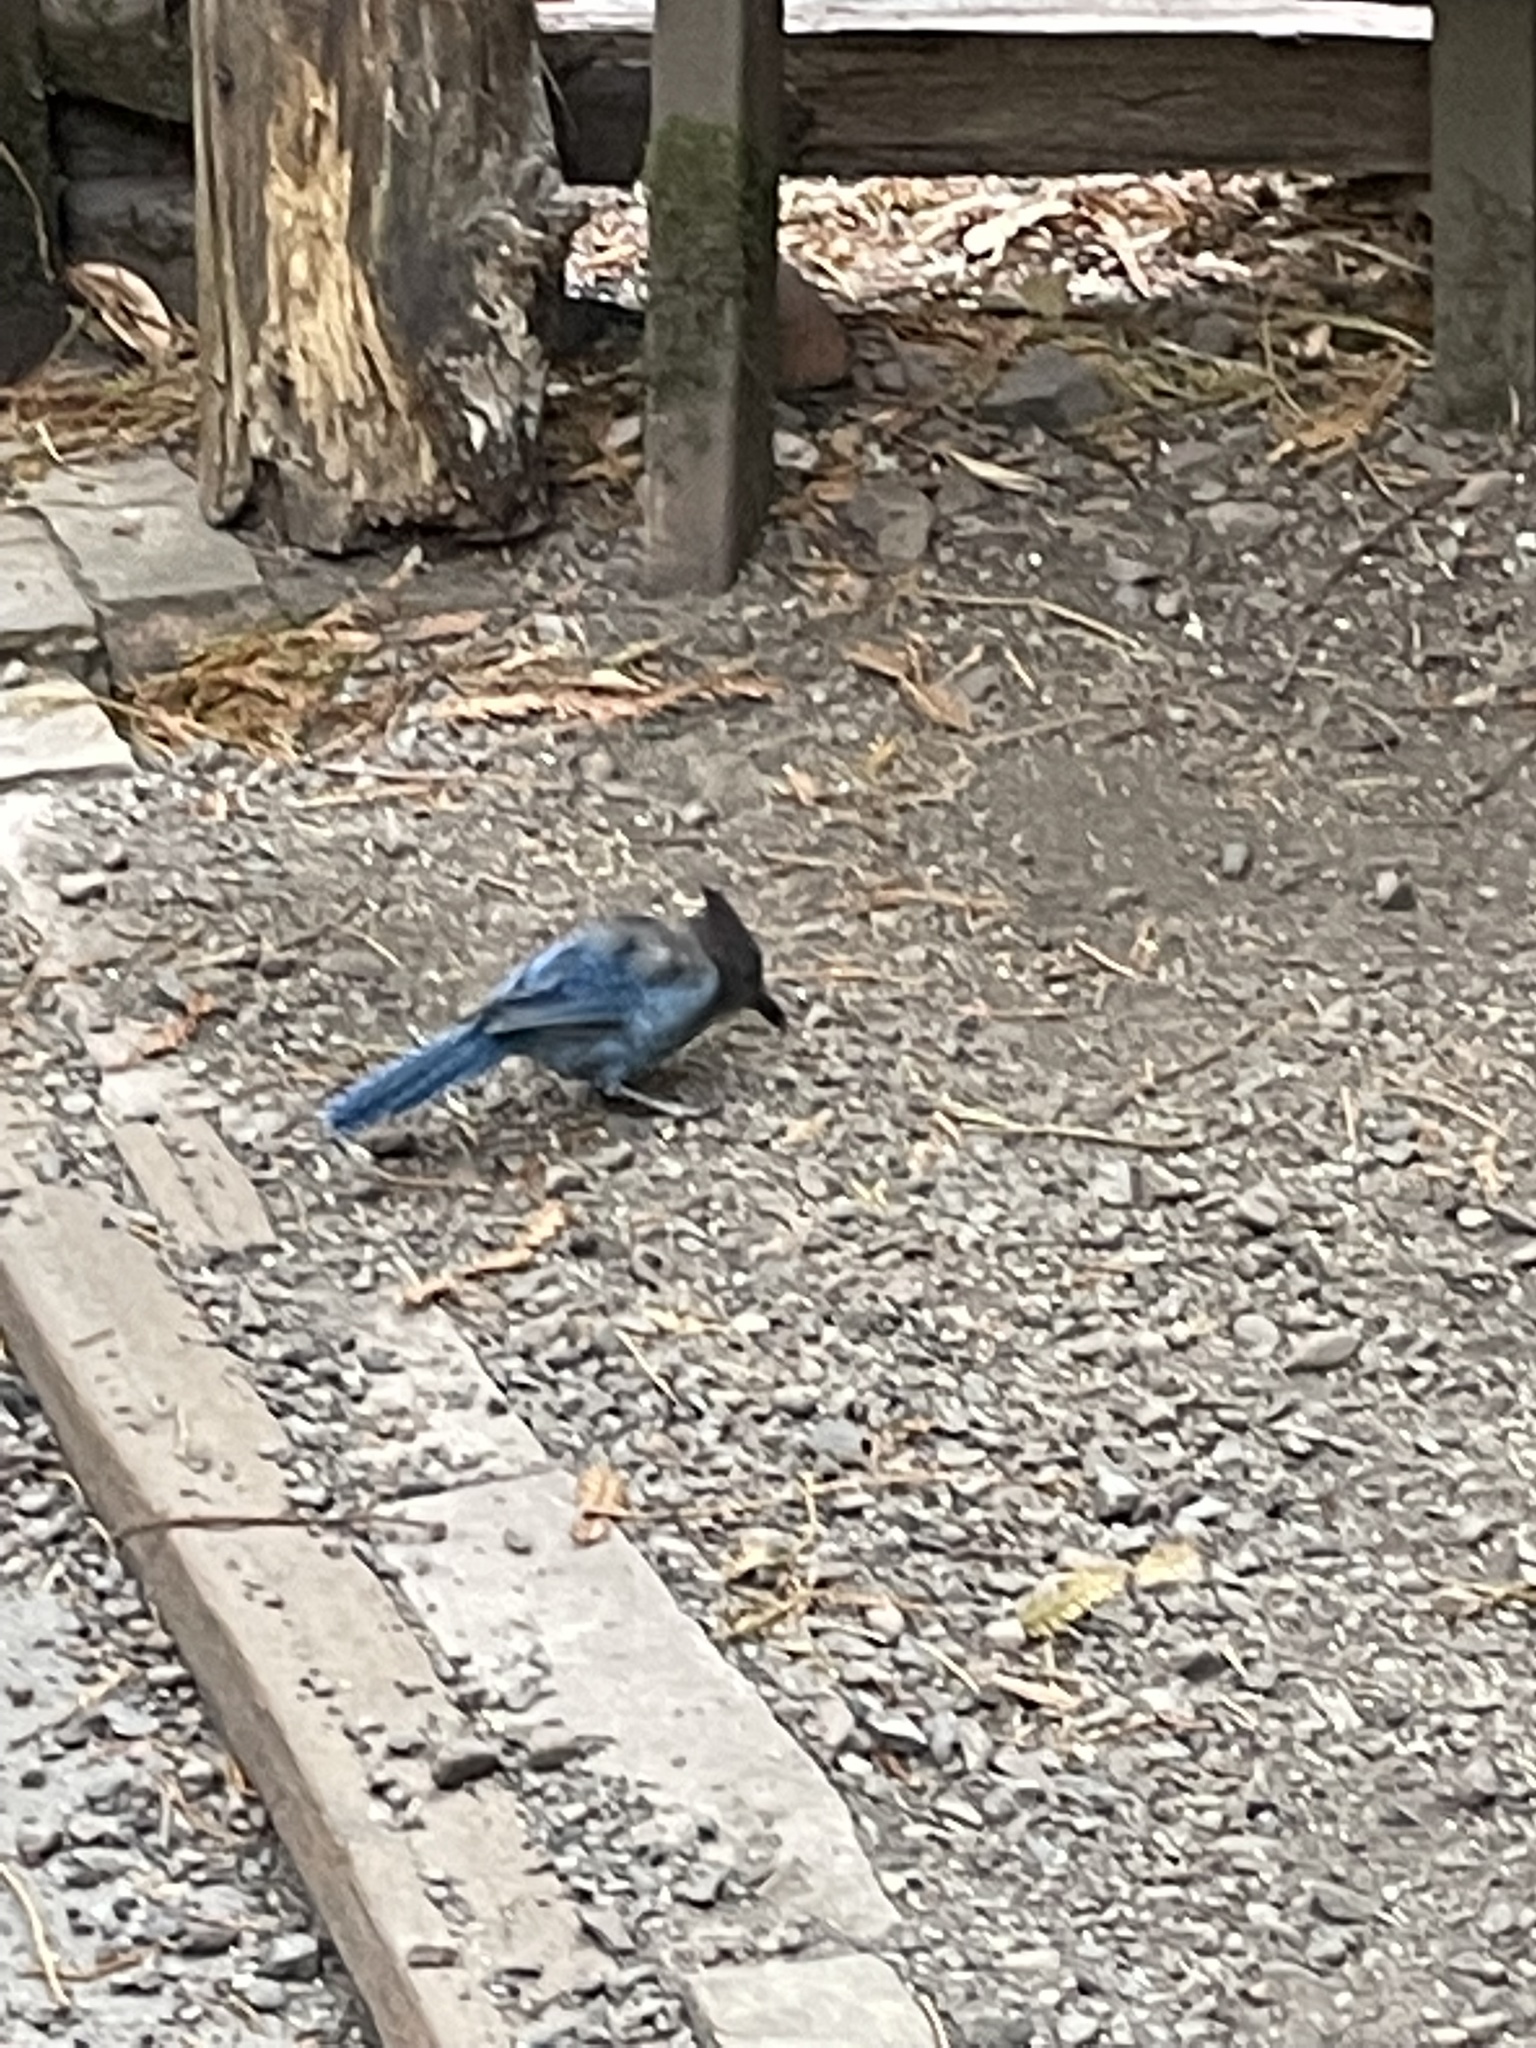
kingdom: Animalia
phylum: Chordata
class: Aves
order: Passeriformes
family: Corvidae
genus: Cyanocitta
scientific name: Cyanocitta stelleri
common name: Steller's jay
